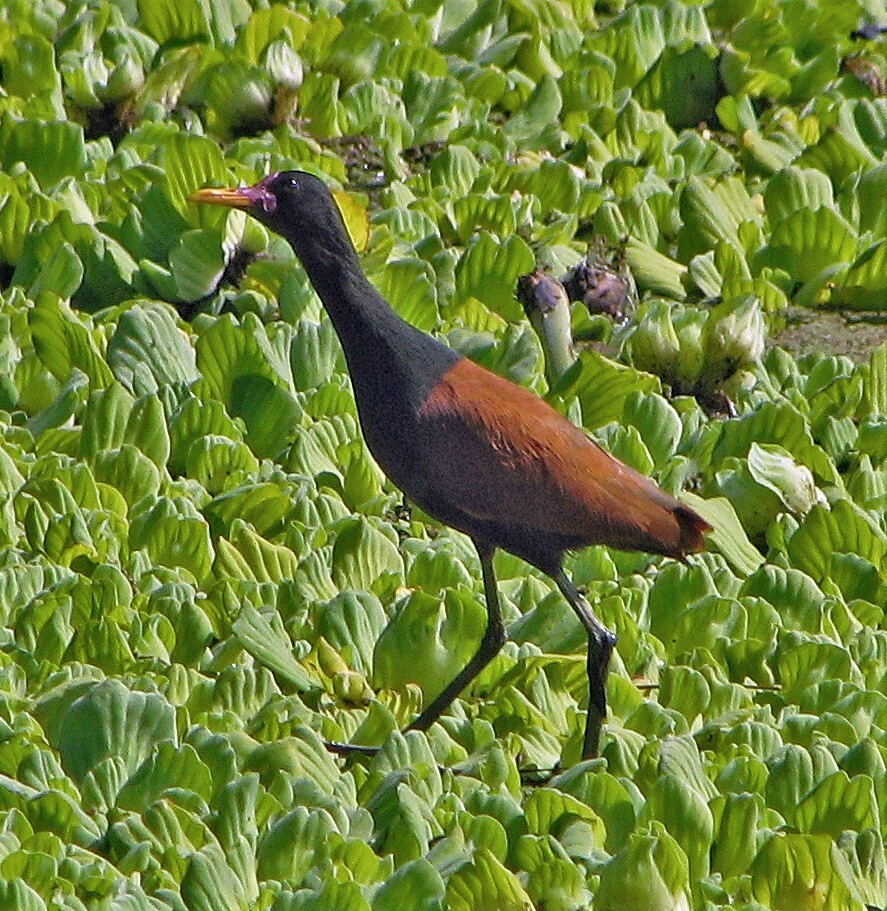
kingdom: Animalia
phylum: Chordata
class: Aves
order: Charadriiformes
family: Jacanidae
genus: Jacana
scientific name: Jacana jacana
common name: Wattled jacana
